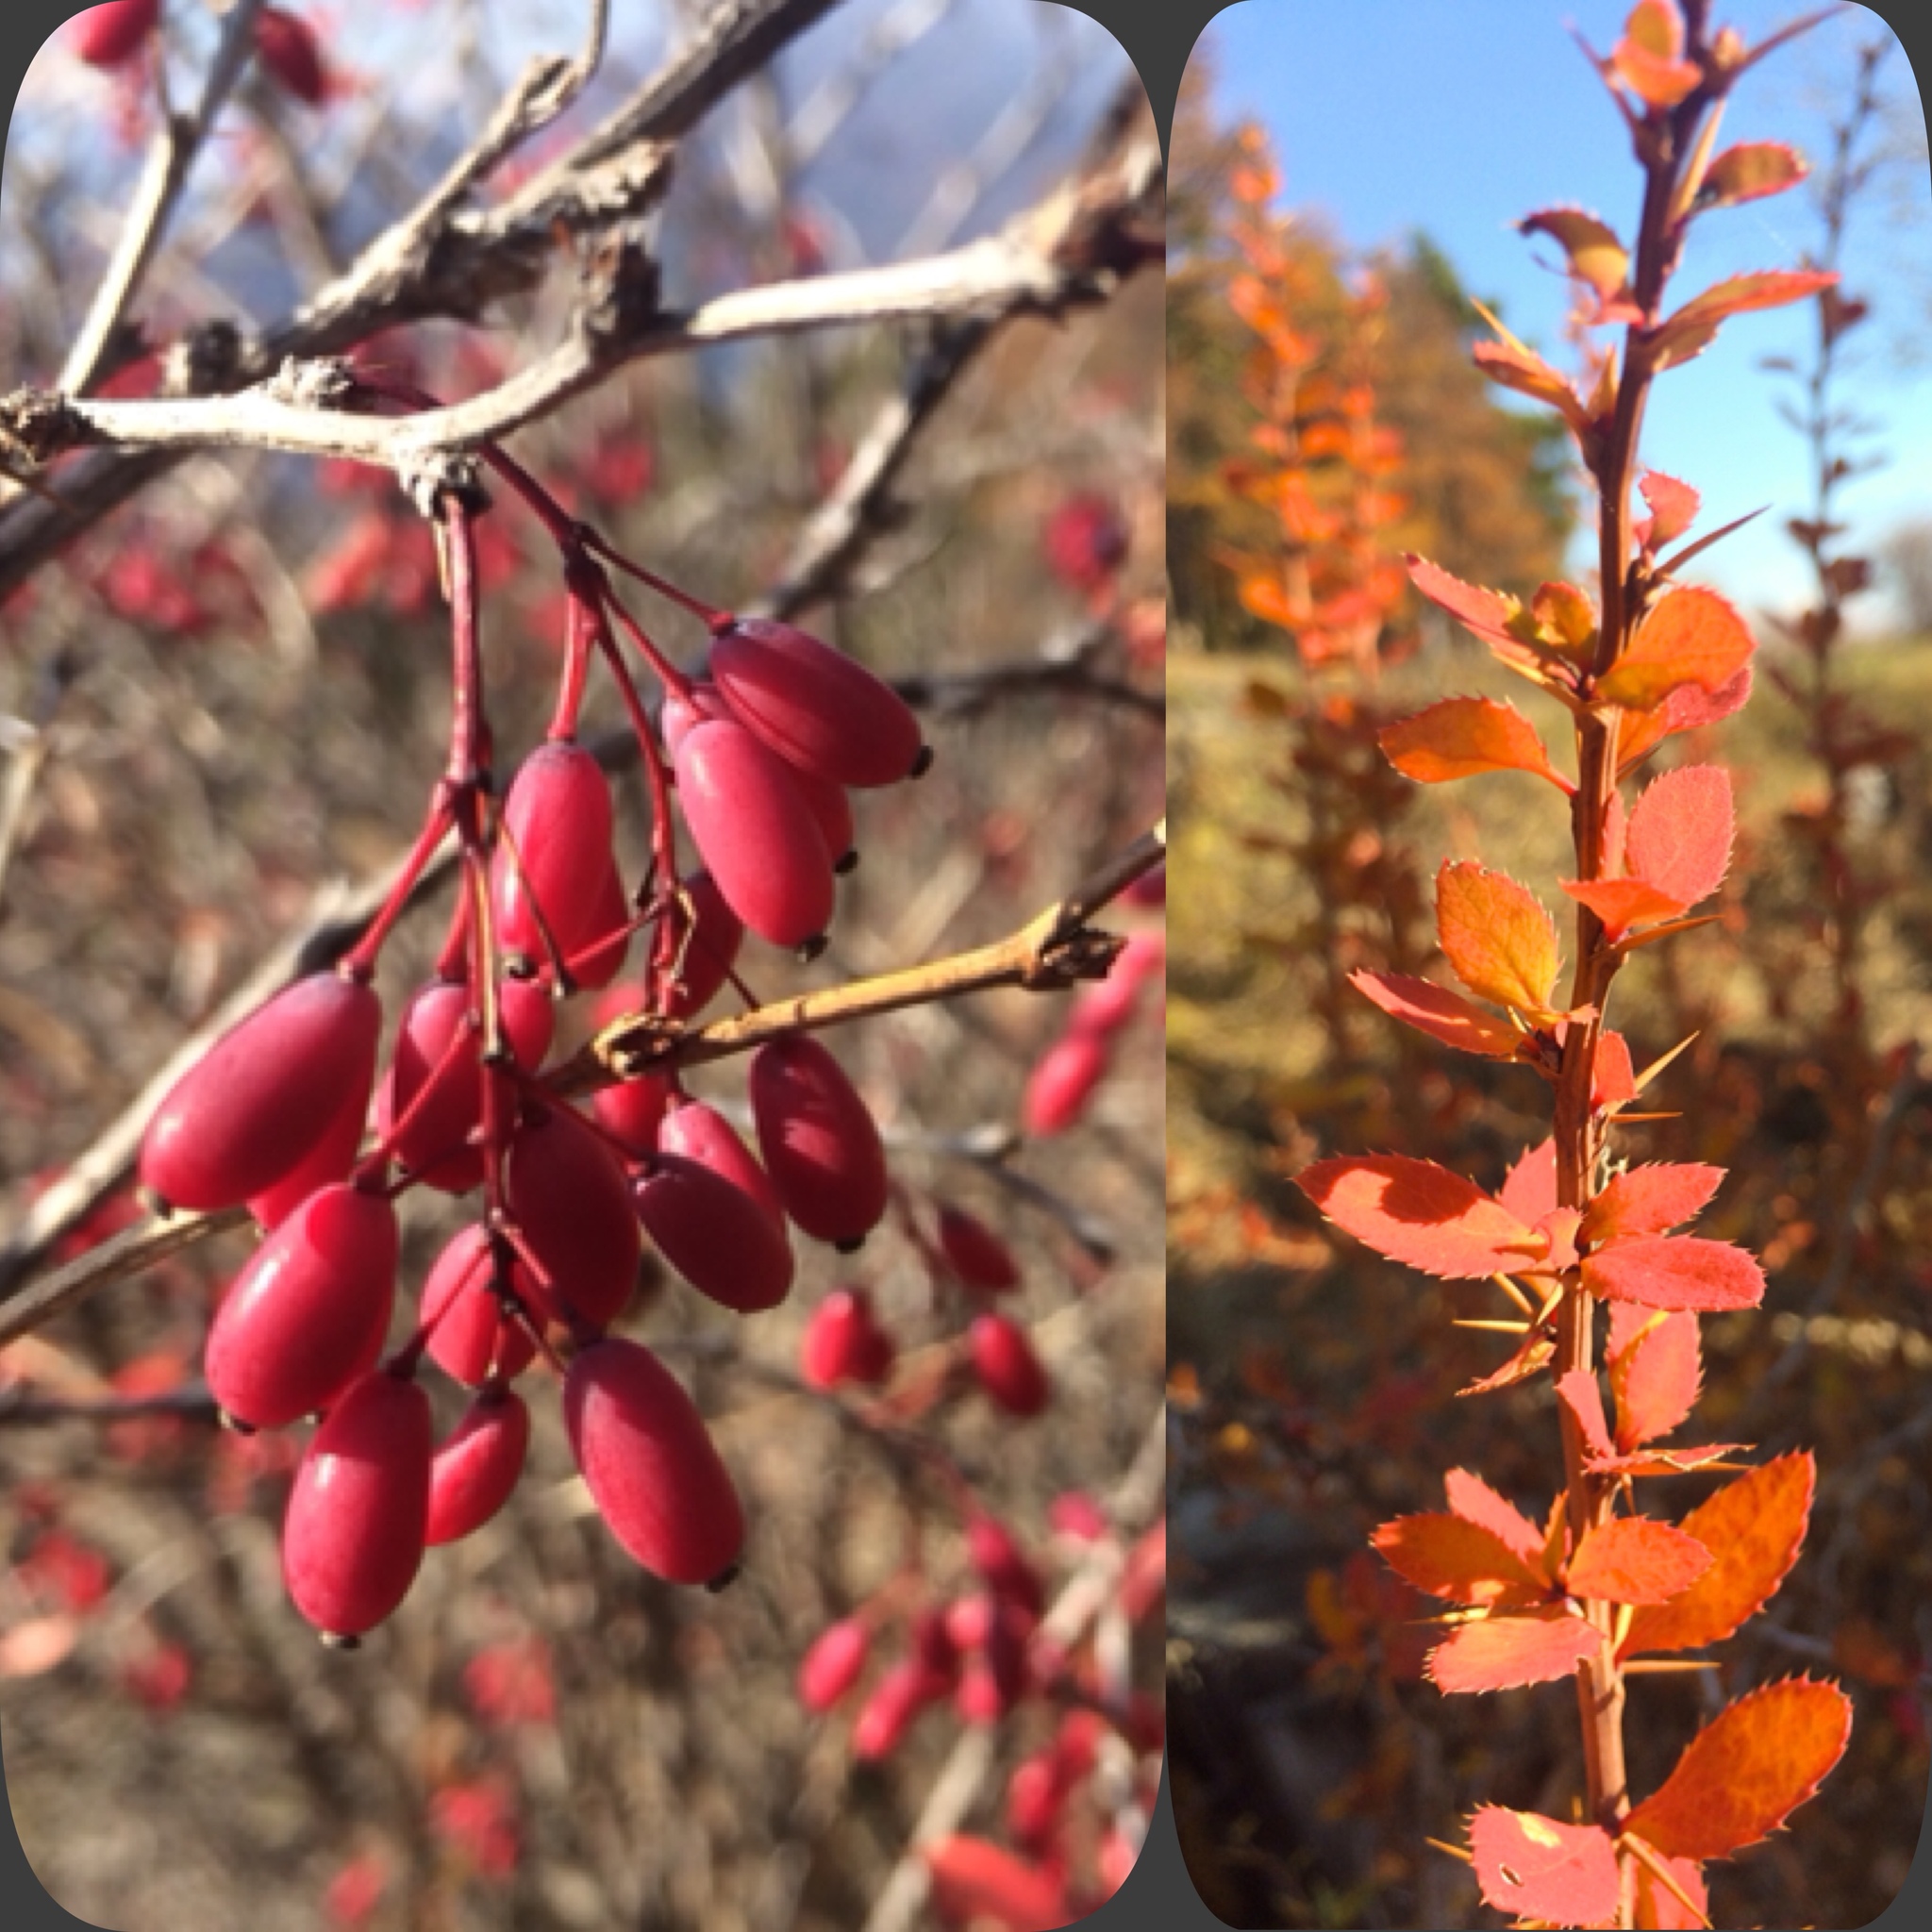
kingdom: Plantae
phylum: Tracheophyta
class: Magnoliopsida
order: Ranunculales
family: Berberidaceae
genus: Berberis
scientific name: Berberis vulgaris
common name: Barberry
